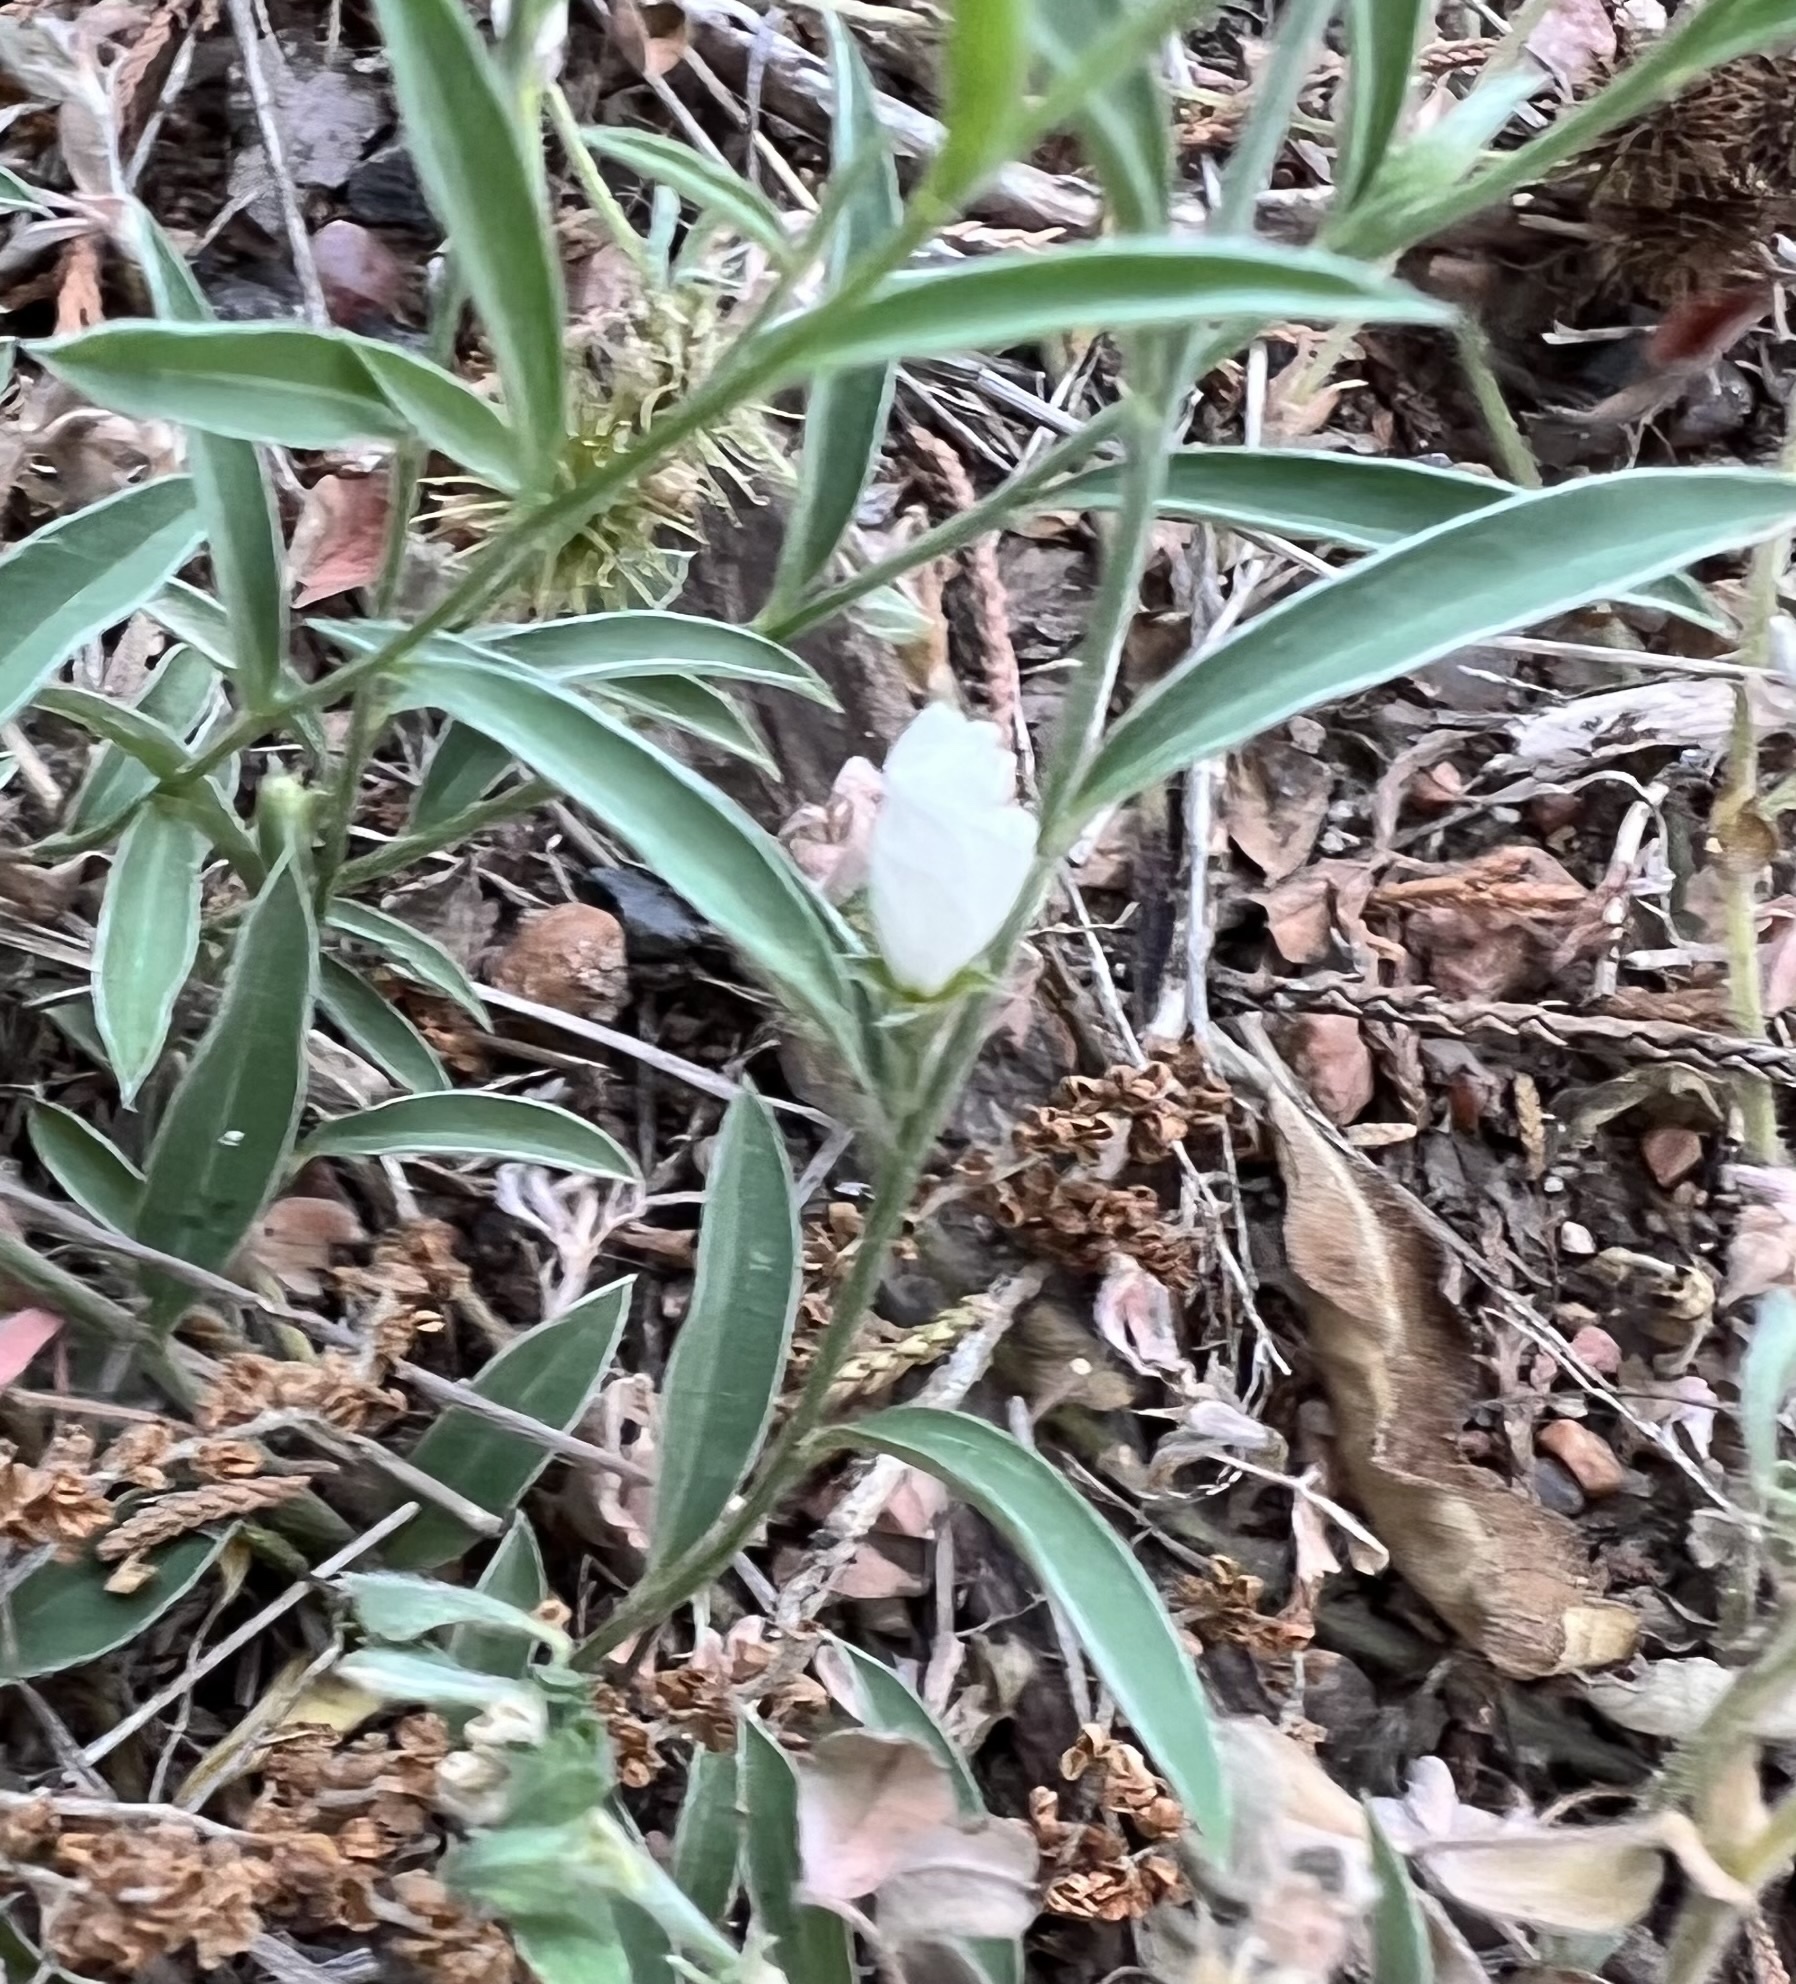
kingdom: Plantae
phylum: Tracheophyta
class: Magnoliopsida
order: Solanales
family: Convolvulaceae
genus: Evolvulus
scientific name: Evolvulus sericeus
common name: Blue dots
